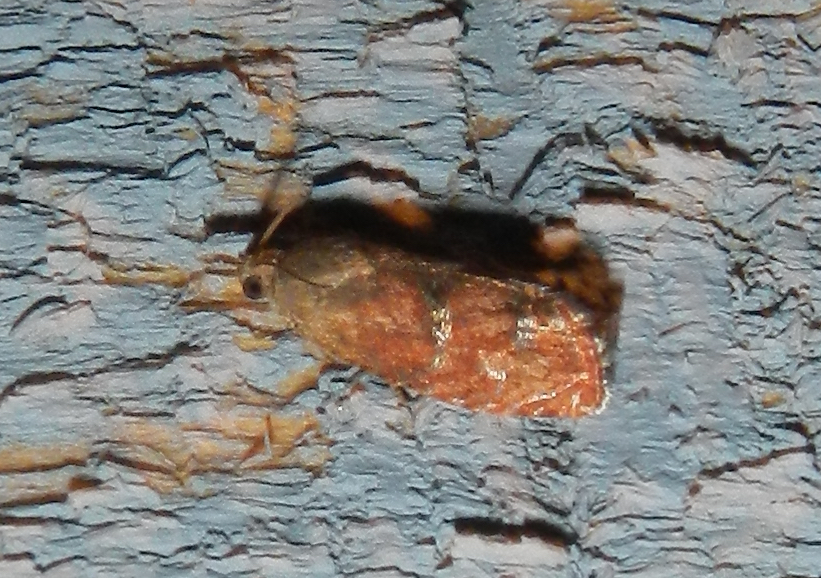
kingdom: Animalia
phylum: Arthropoda
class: Insecta
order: Lepidoptera
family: Tortricidae
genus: Cydia
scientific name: Cydia latiferreana
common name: Filbertworm moth
